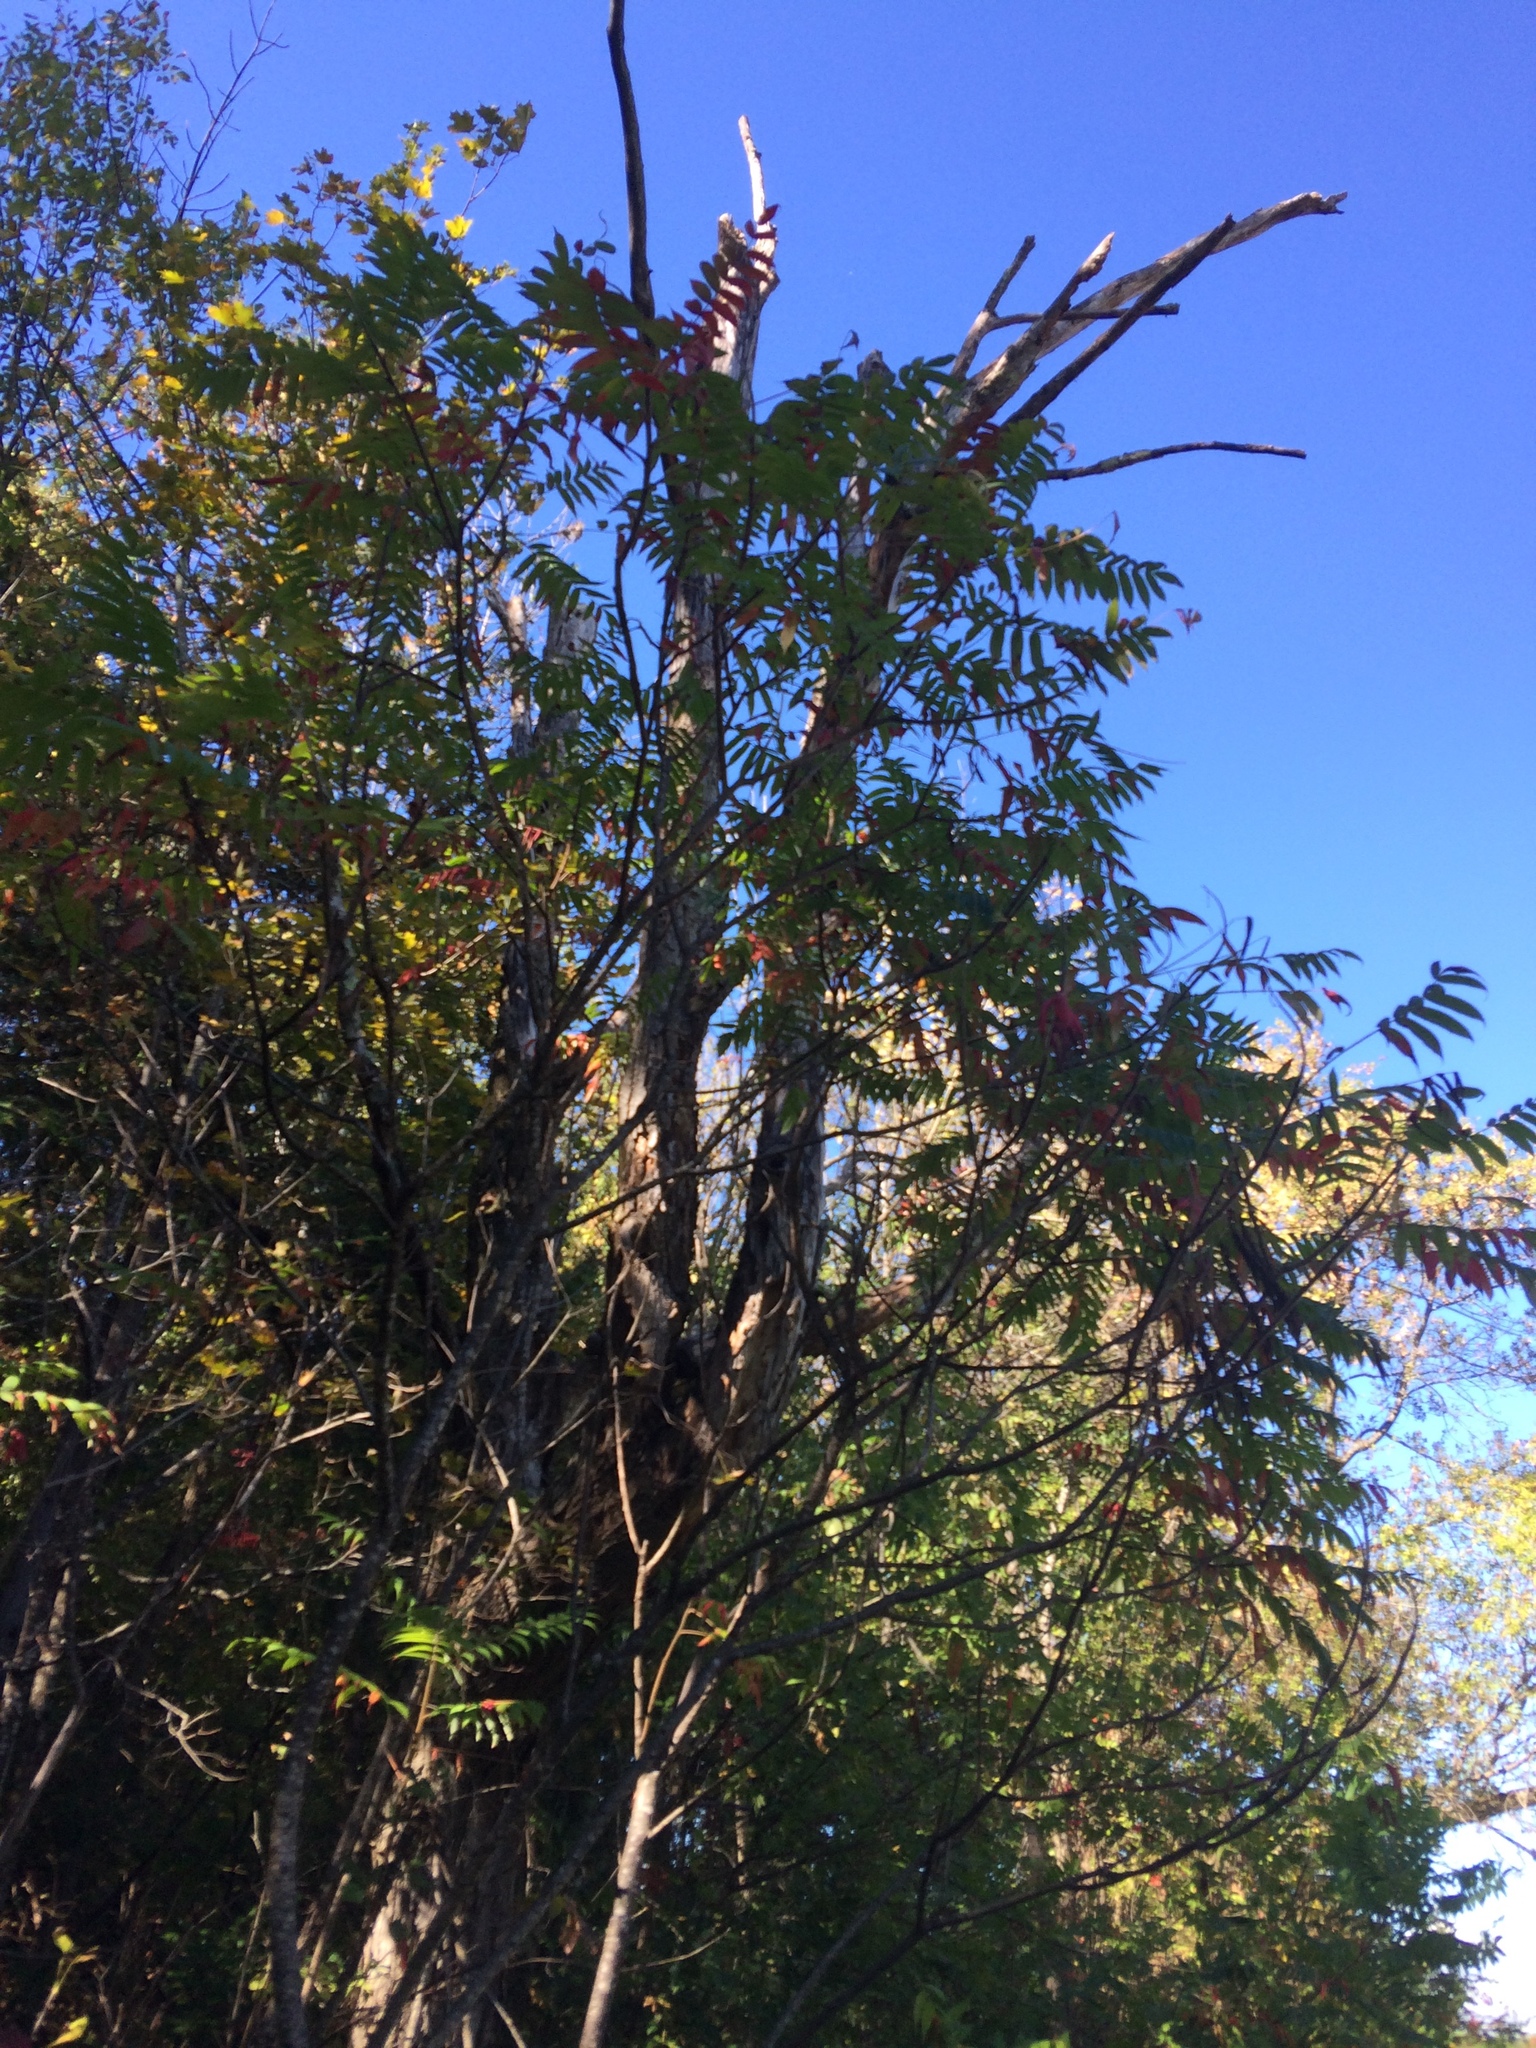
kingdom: Plantae
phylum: Tracheophyta
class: Magnoliopsida
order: Sapindales
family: Anacardiaceae
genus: Rhus
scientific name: Rhus typhina
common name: Staghorn sumac
